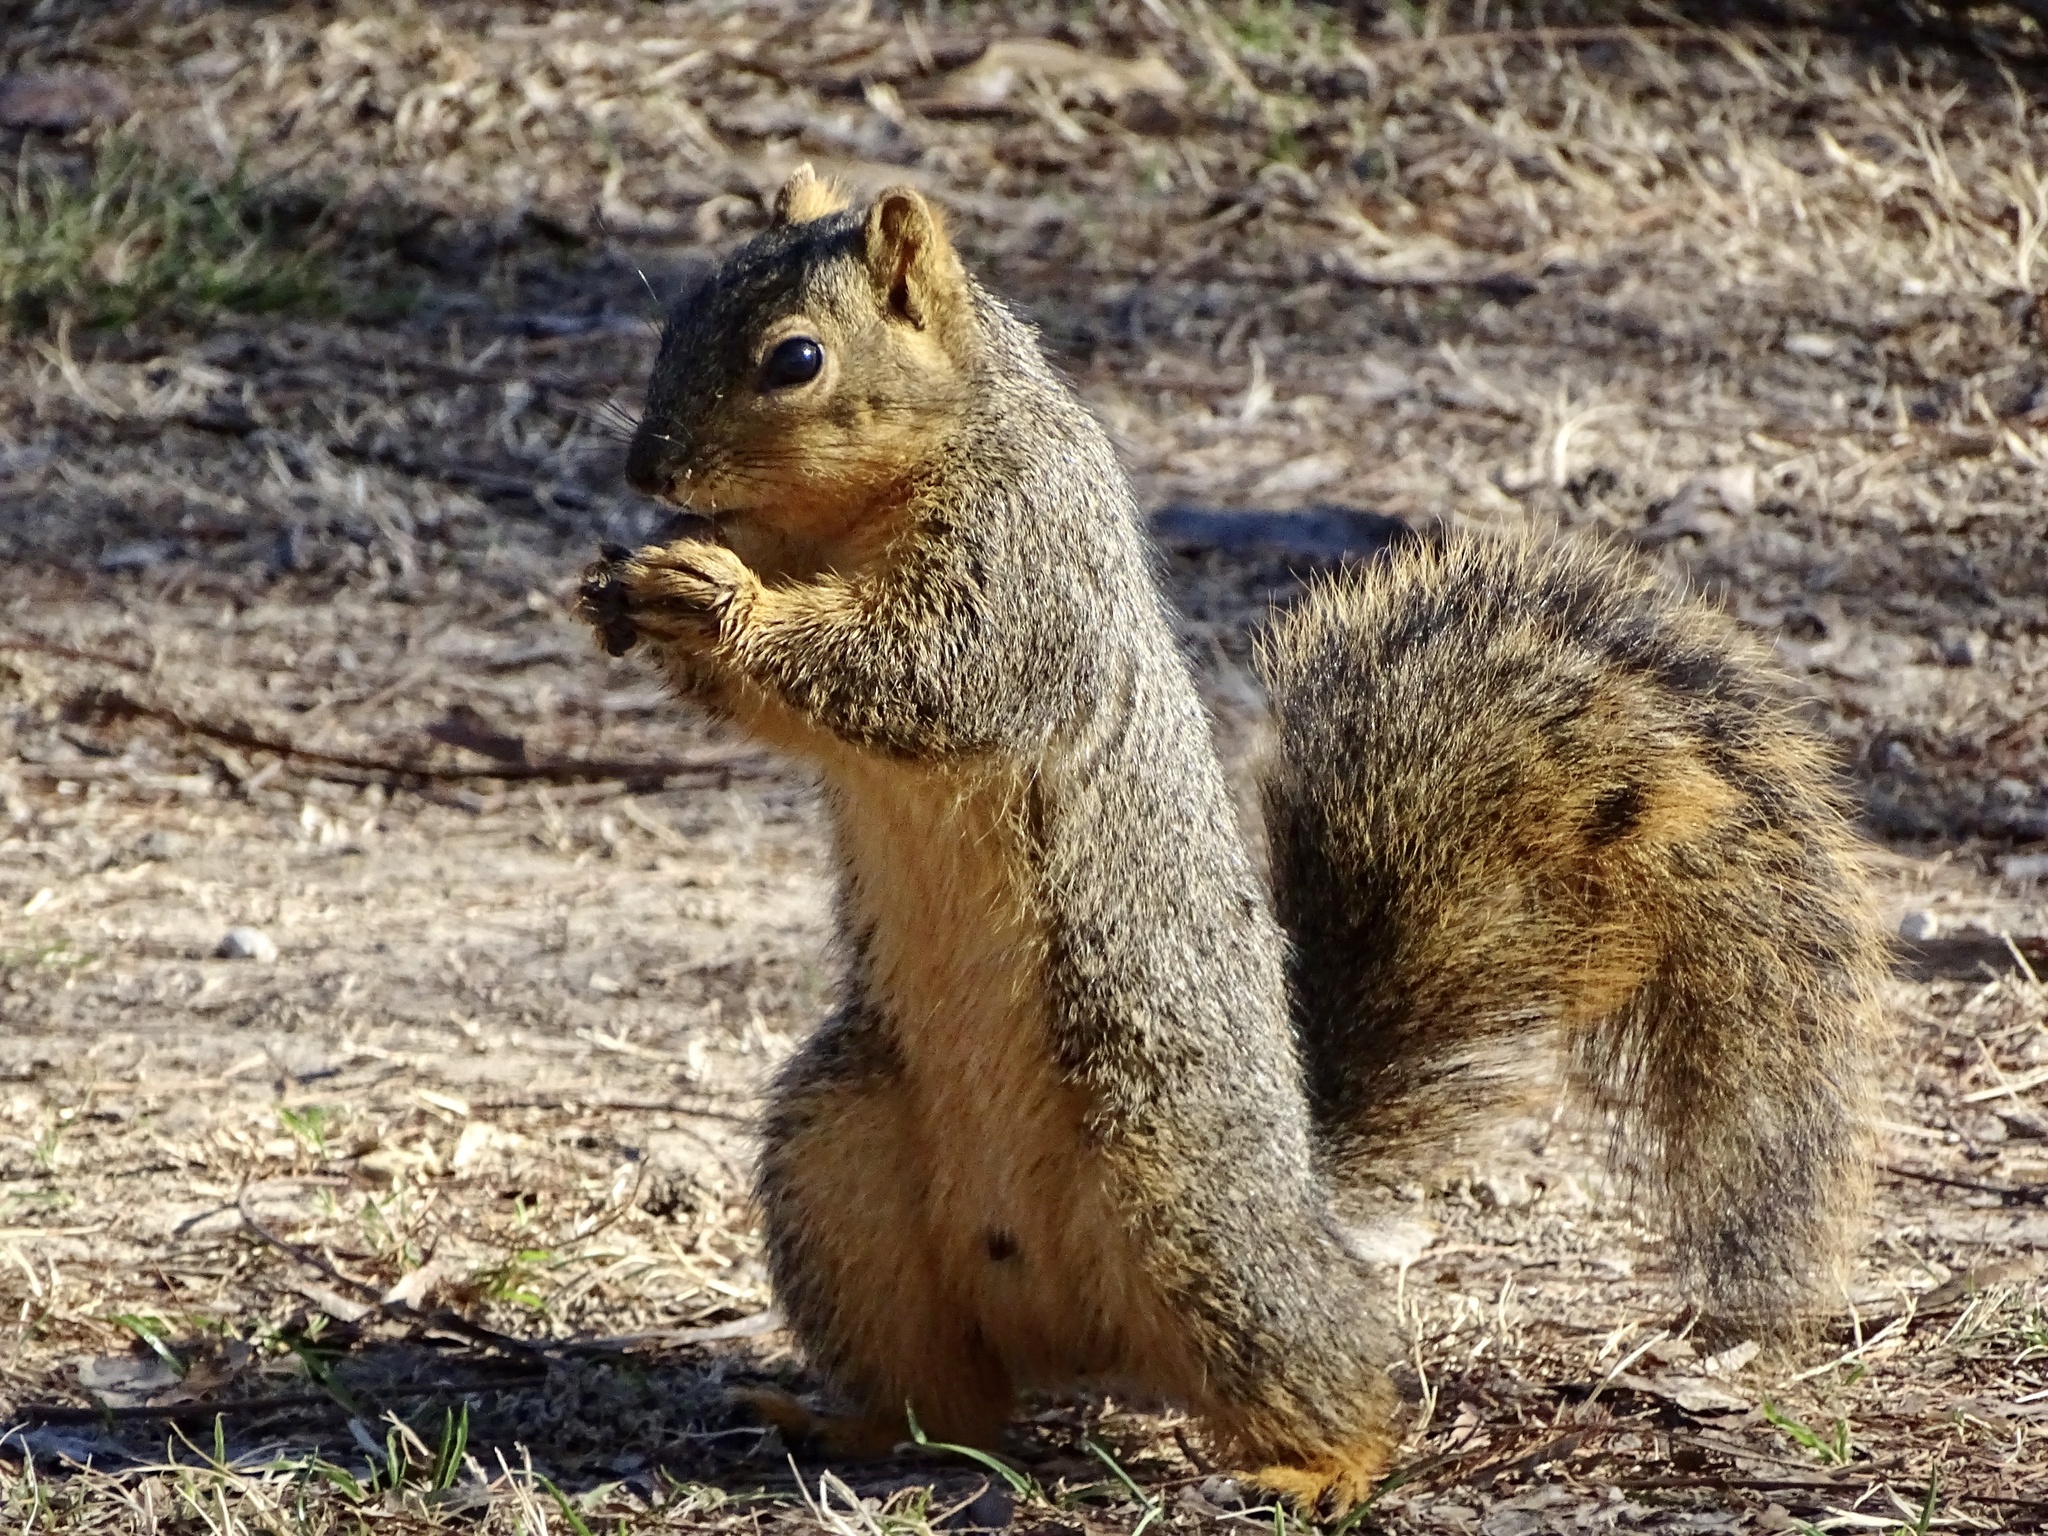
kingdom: Animalia
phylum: Chordata
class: Mammalia
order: Rodentia
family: Sciuridae
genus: Sciurus
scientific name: Sciurus niger
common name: Fox squirrel
